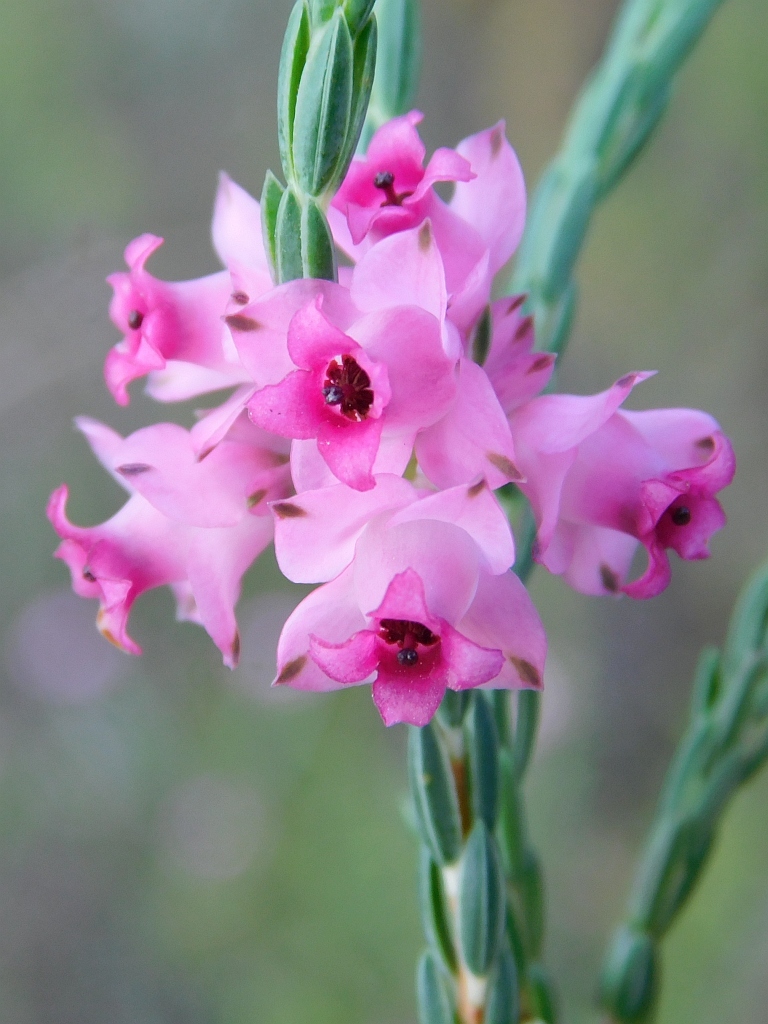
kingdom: Plantae
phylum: Tracheophyta
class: Magnoliopsida
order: Ericales
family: Ericaceae
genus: Erica
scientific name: Erica corifolia
